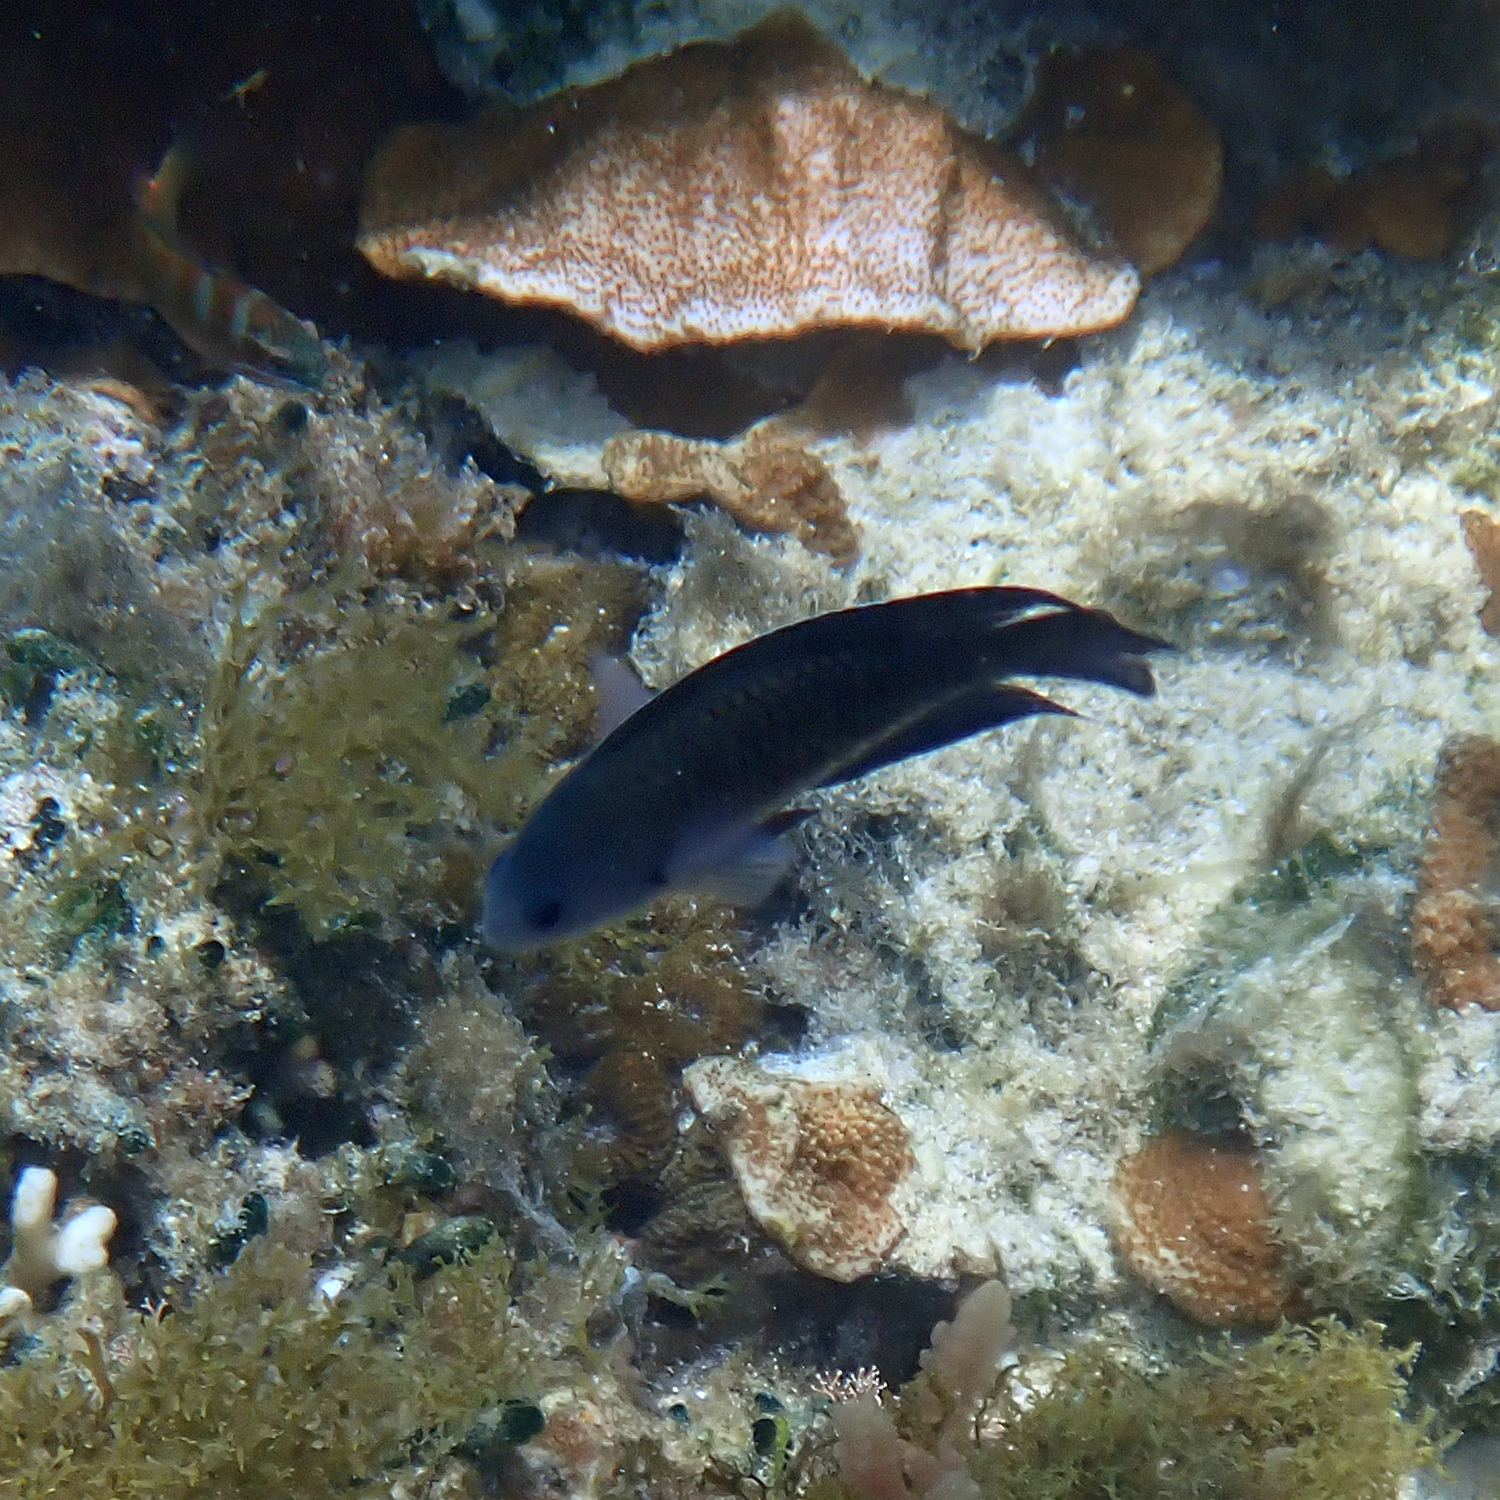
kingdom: Animalia
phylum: Chordata
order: Perciformes
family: Pomacentridae
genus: Chrysiptera
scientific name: Chrysiptera notialis
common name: Southern demoiselle
